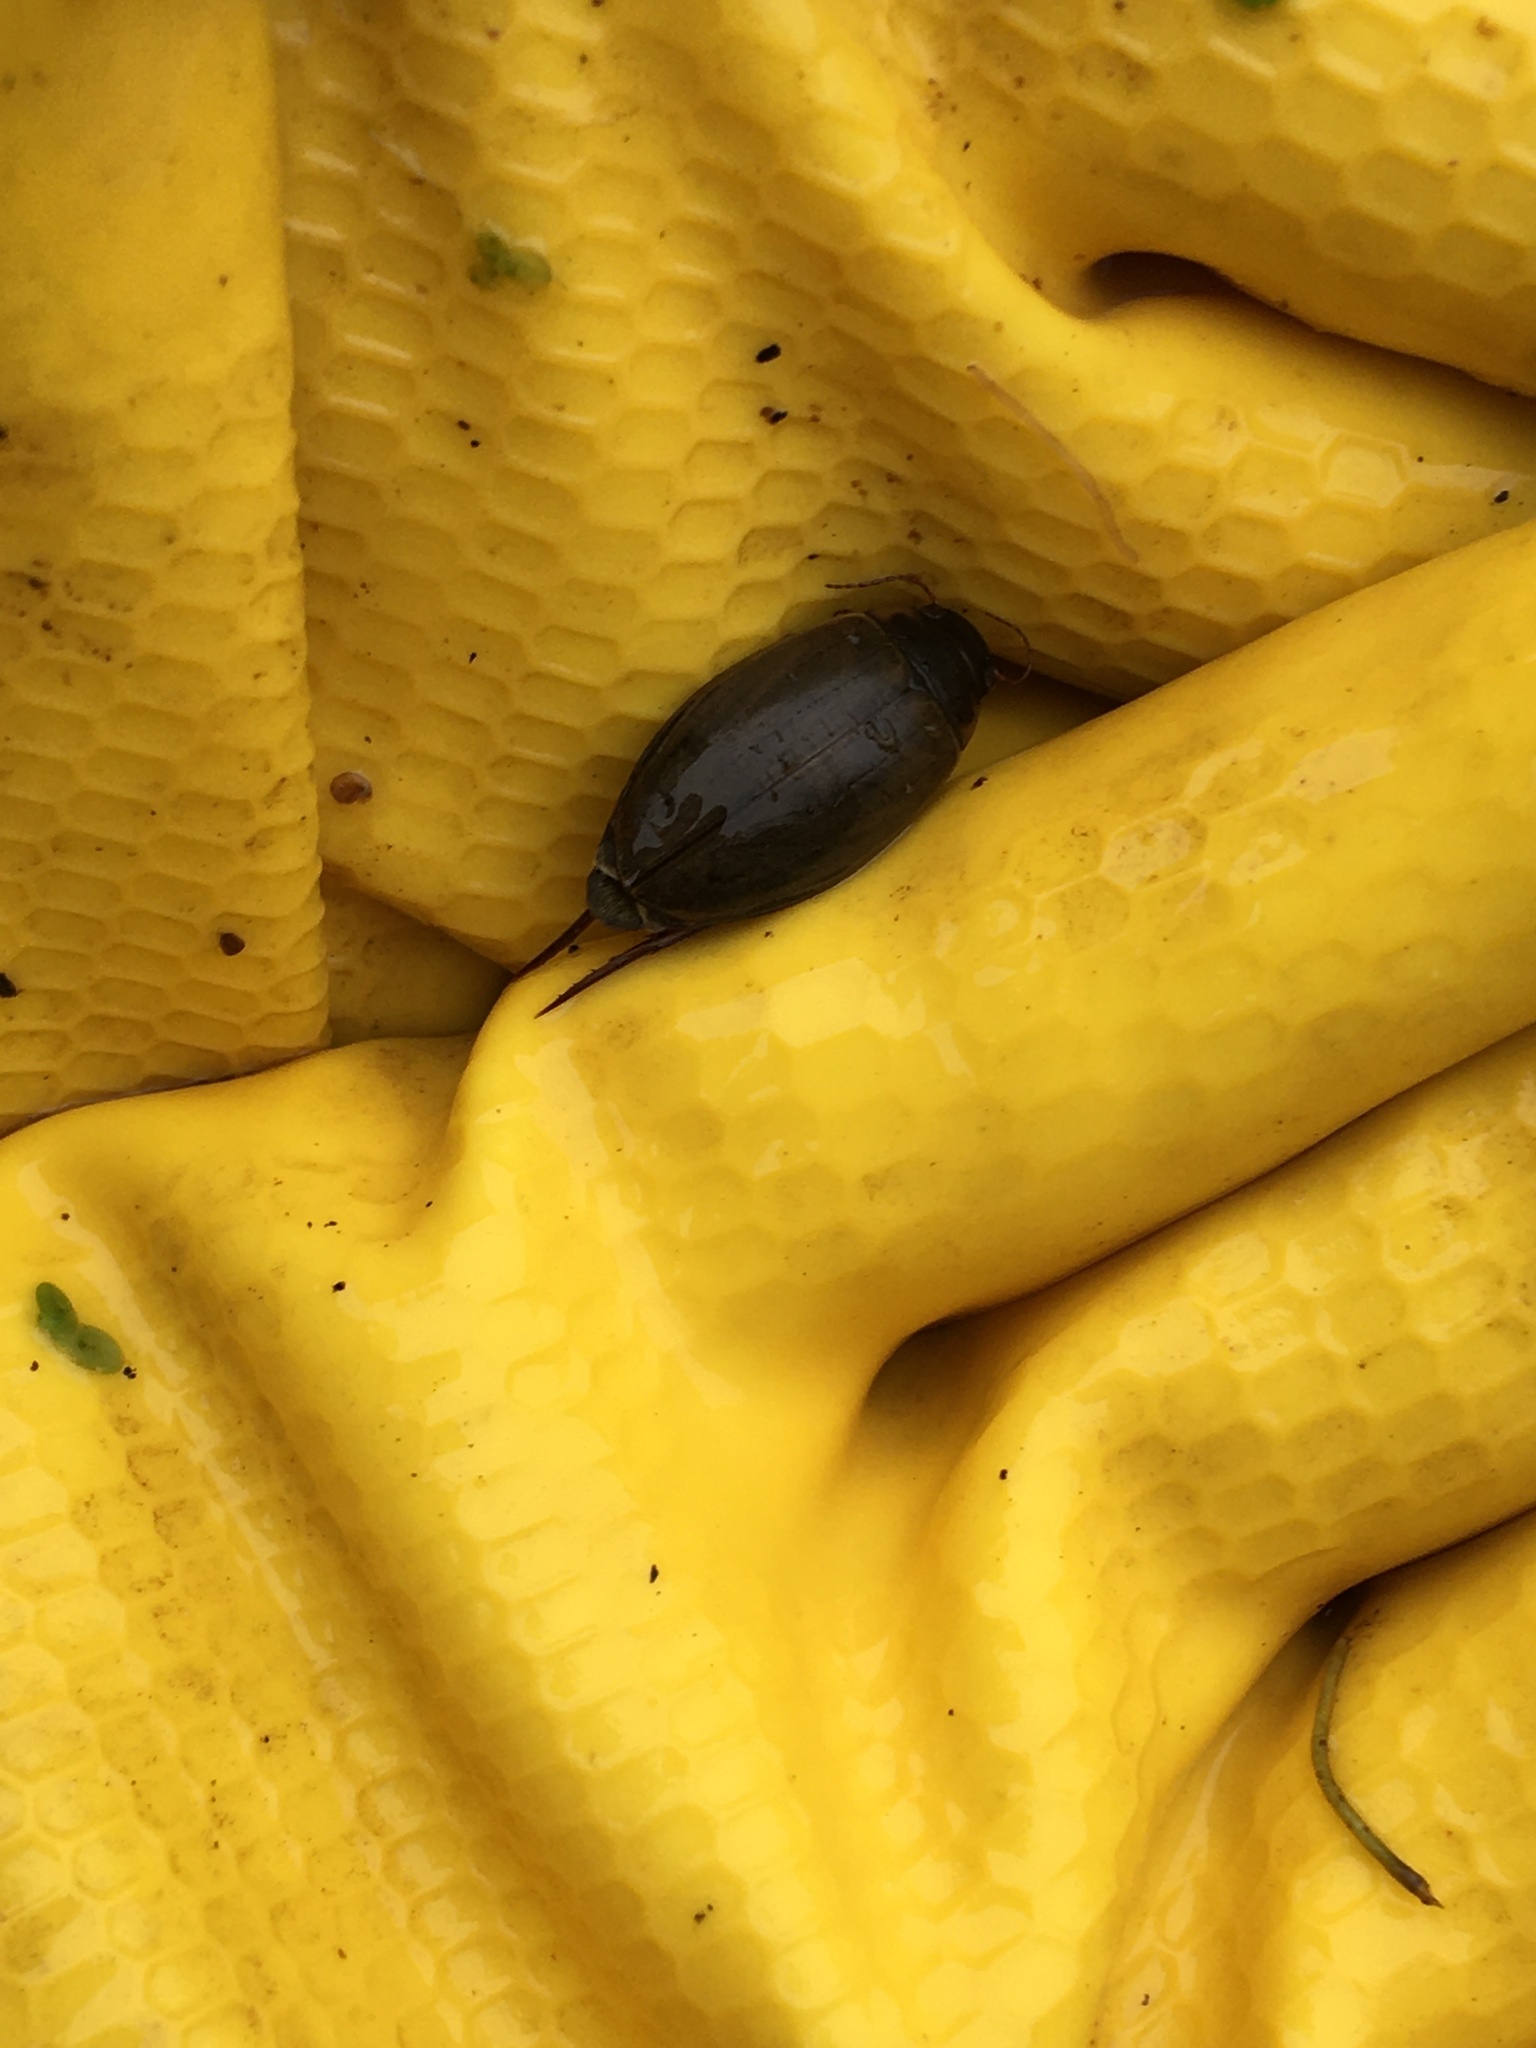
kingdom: Animalia
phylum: Arthropoda
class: Insecta
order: Coleoptera
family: Dytiscidae
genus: Colymbetes
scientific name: Colymbetes fuscus
